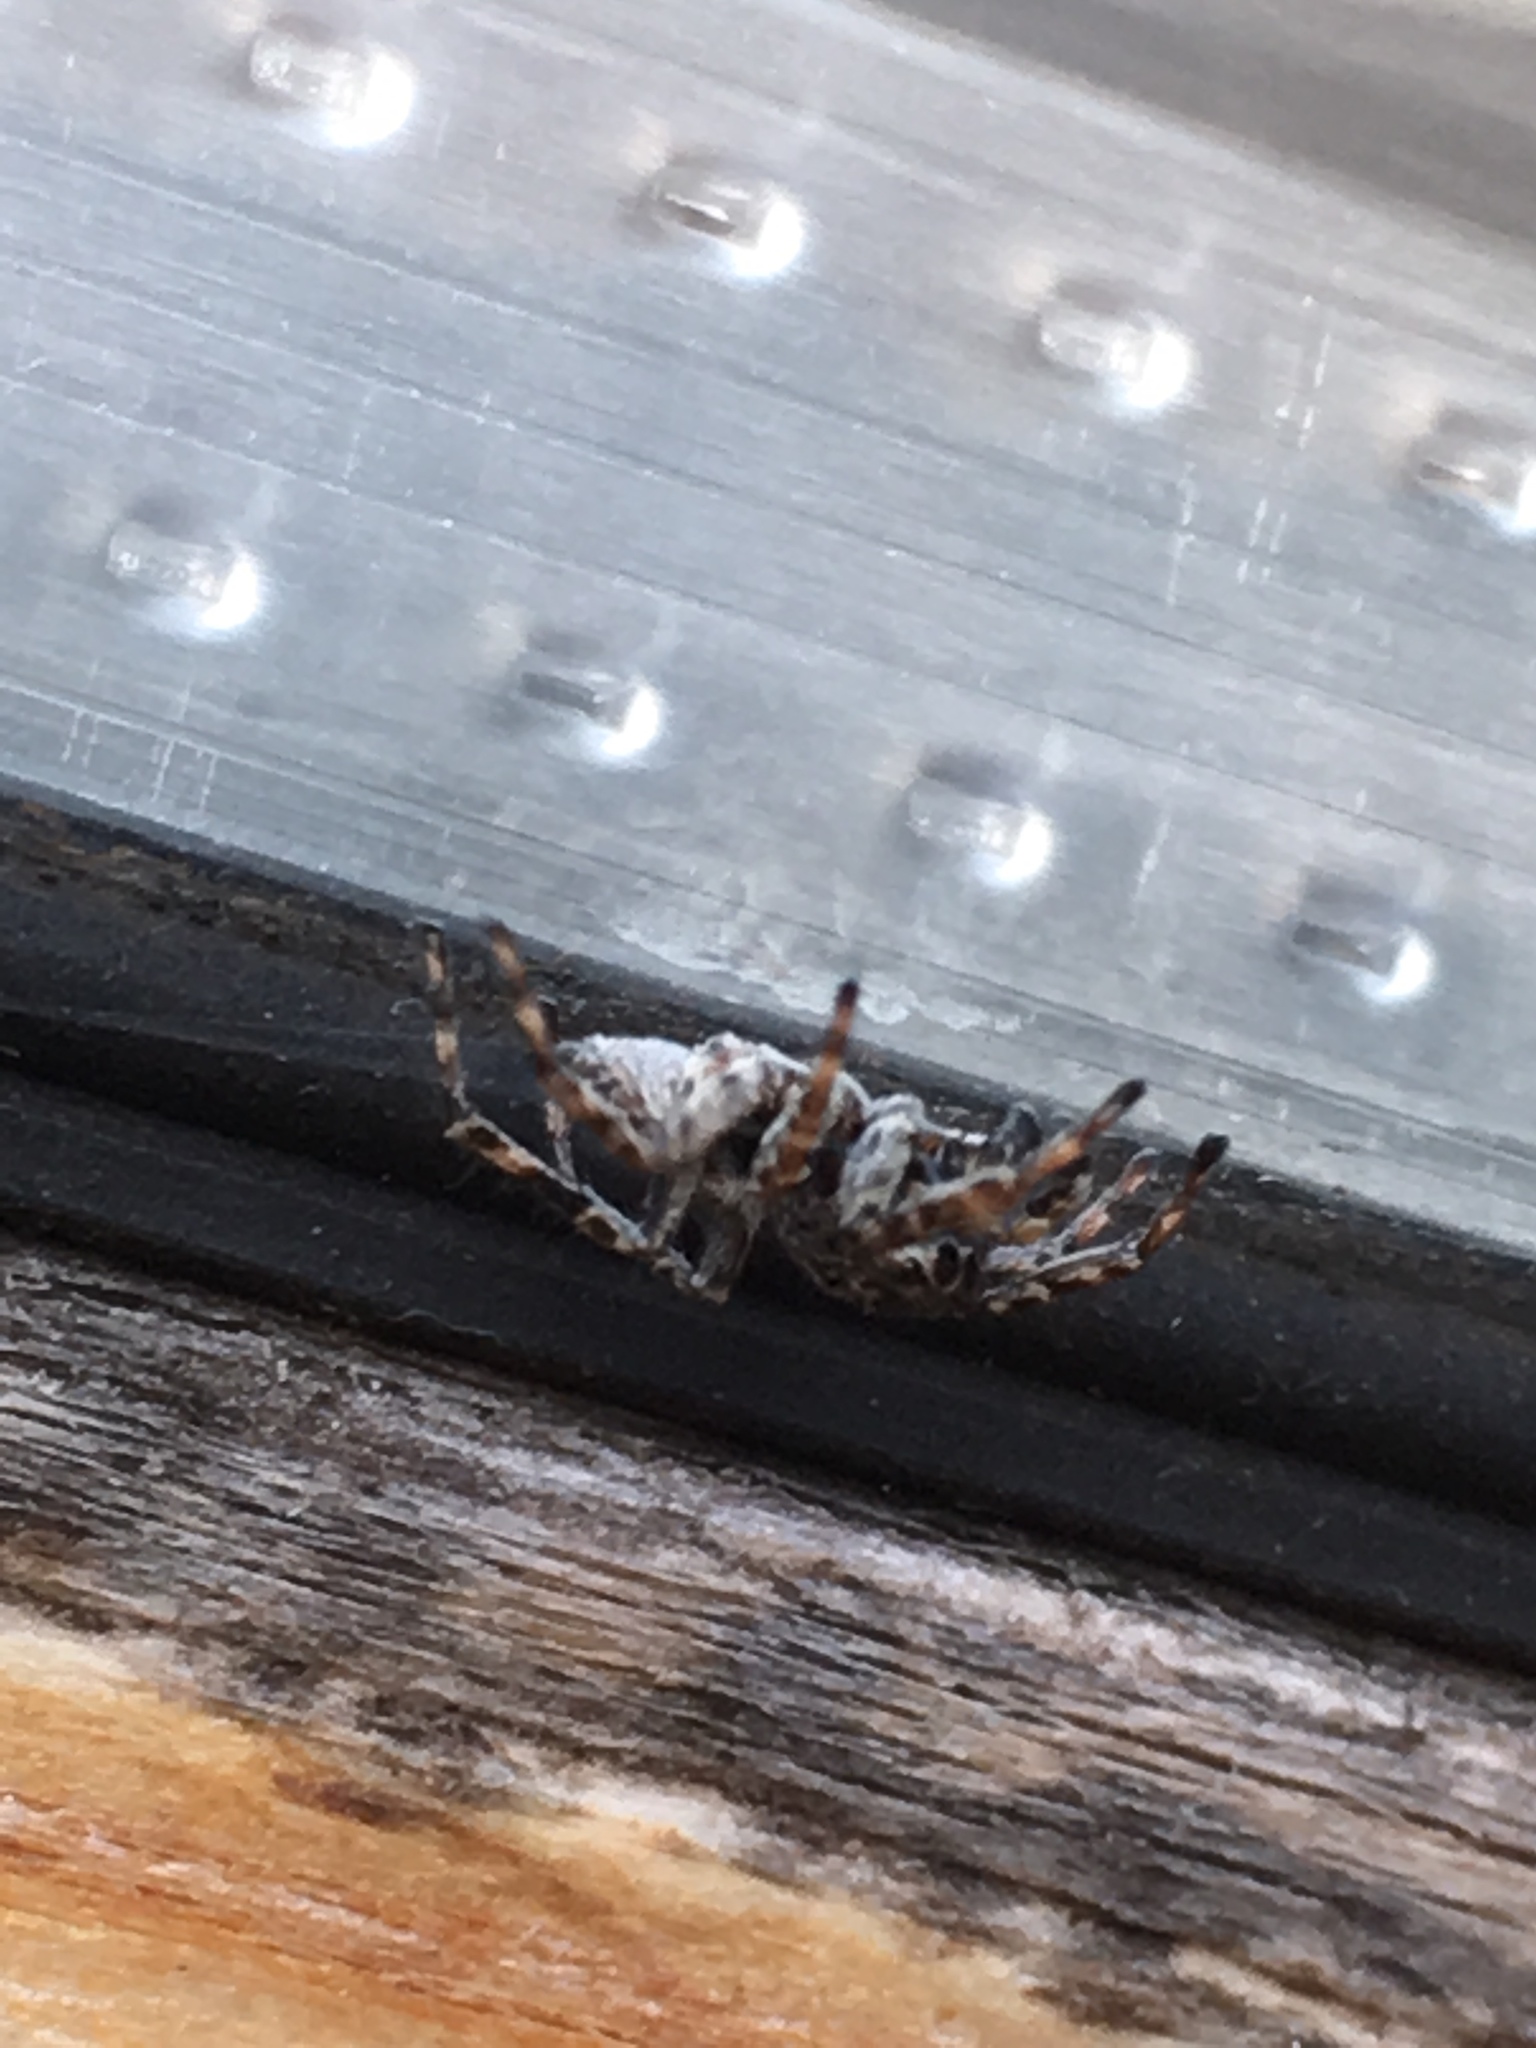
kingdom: Animalia
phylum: Arthropoda
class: Arachnida
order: Araneae
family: Salticidae
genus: Attulus
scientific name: Attulus pubescens
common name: Jumping spider
